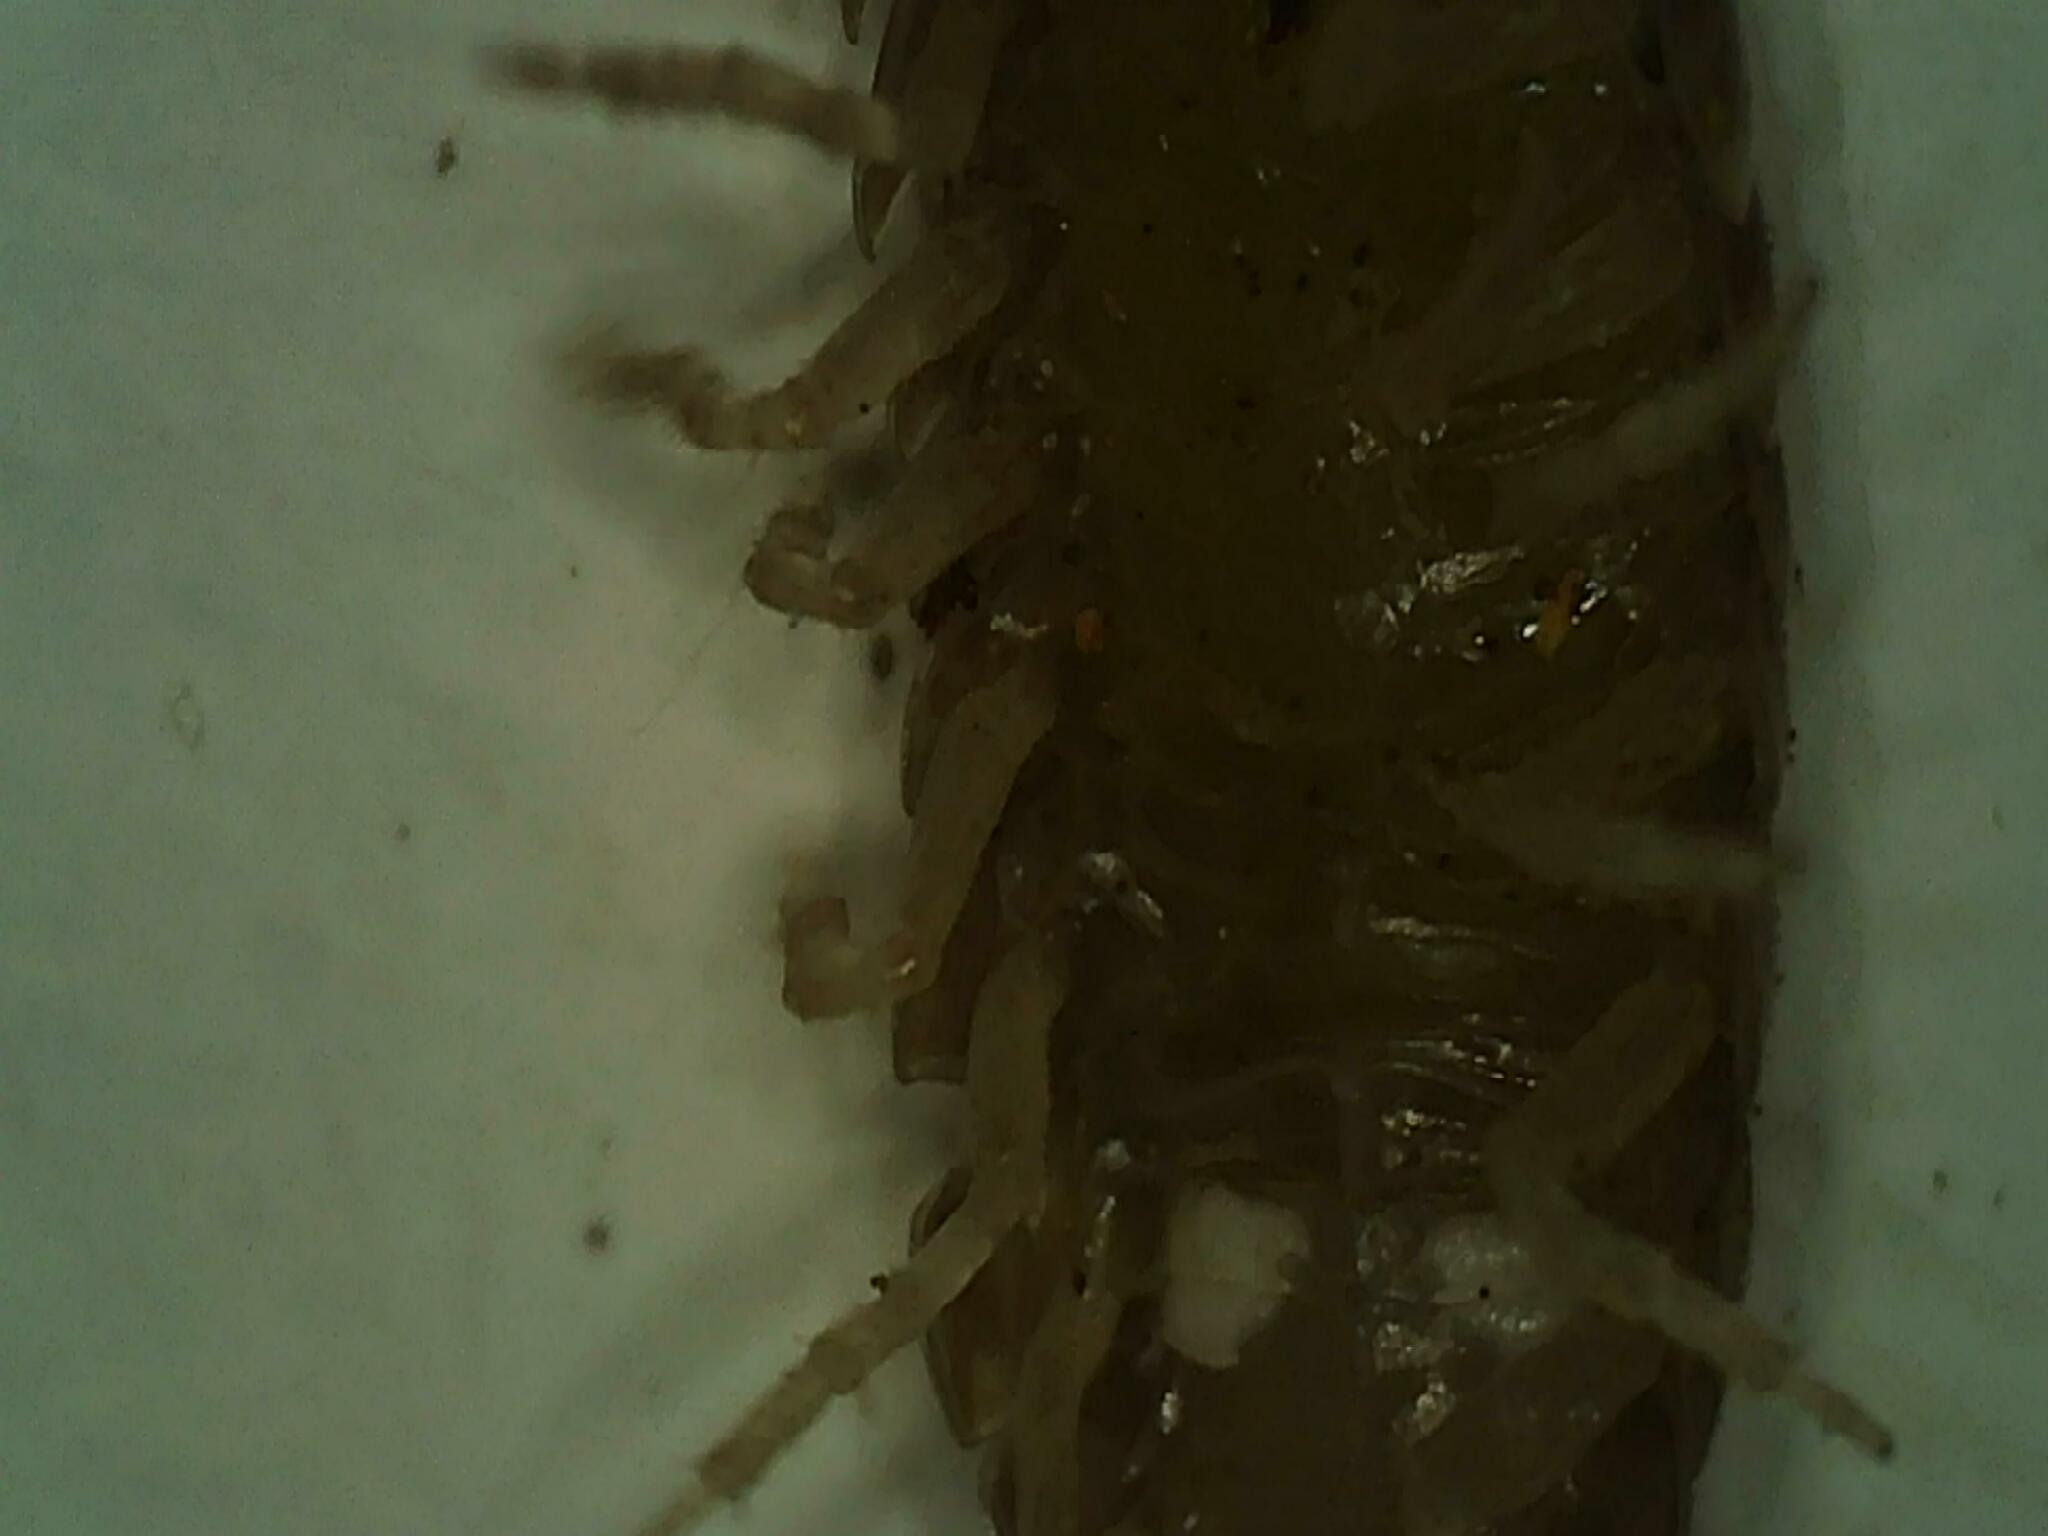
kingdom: Animalia
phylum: Arthropoda
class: Malacostraca
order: Isopoda
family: Armadillidiidae
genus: Armadillidium
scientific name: Armadillidium vulgare
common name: Common pill woodlouse
